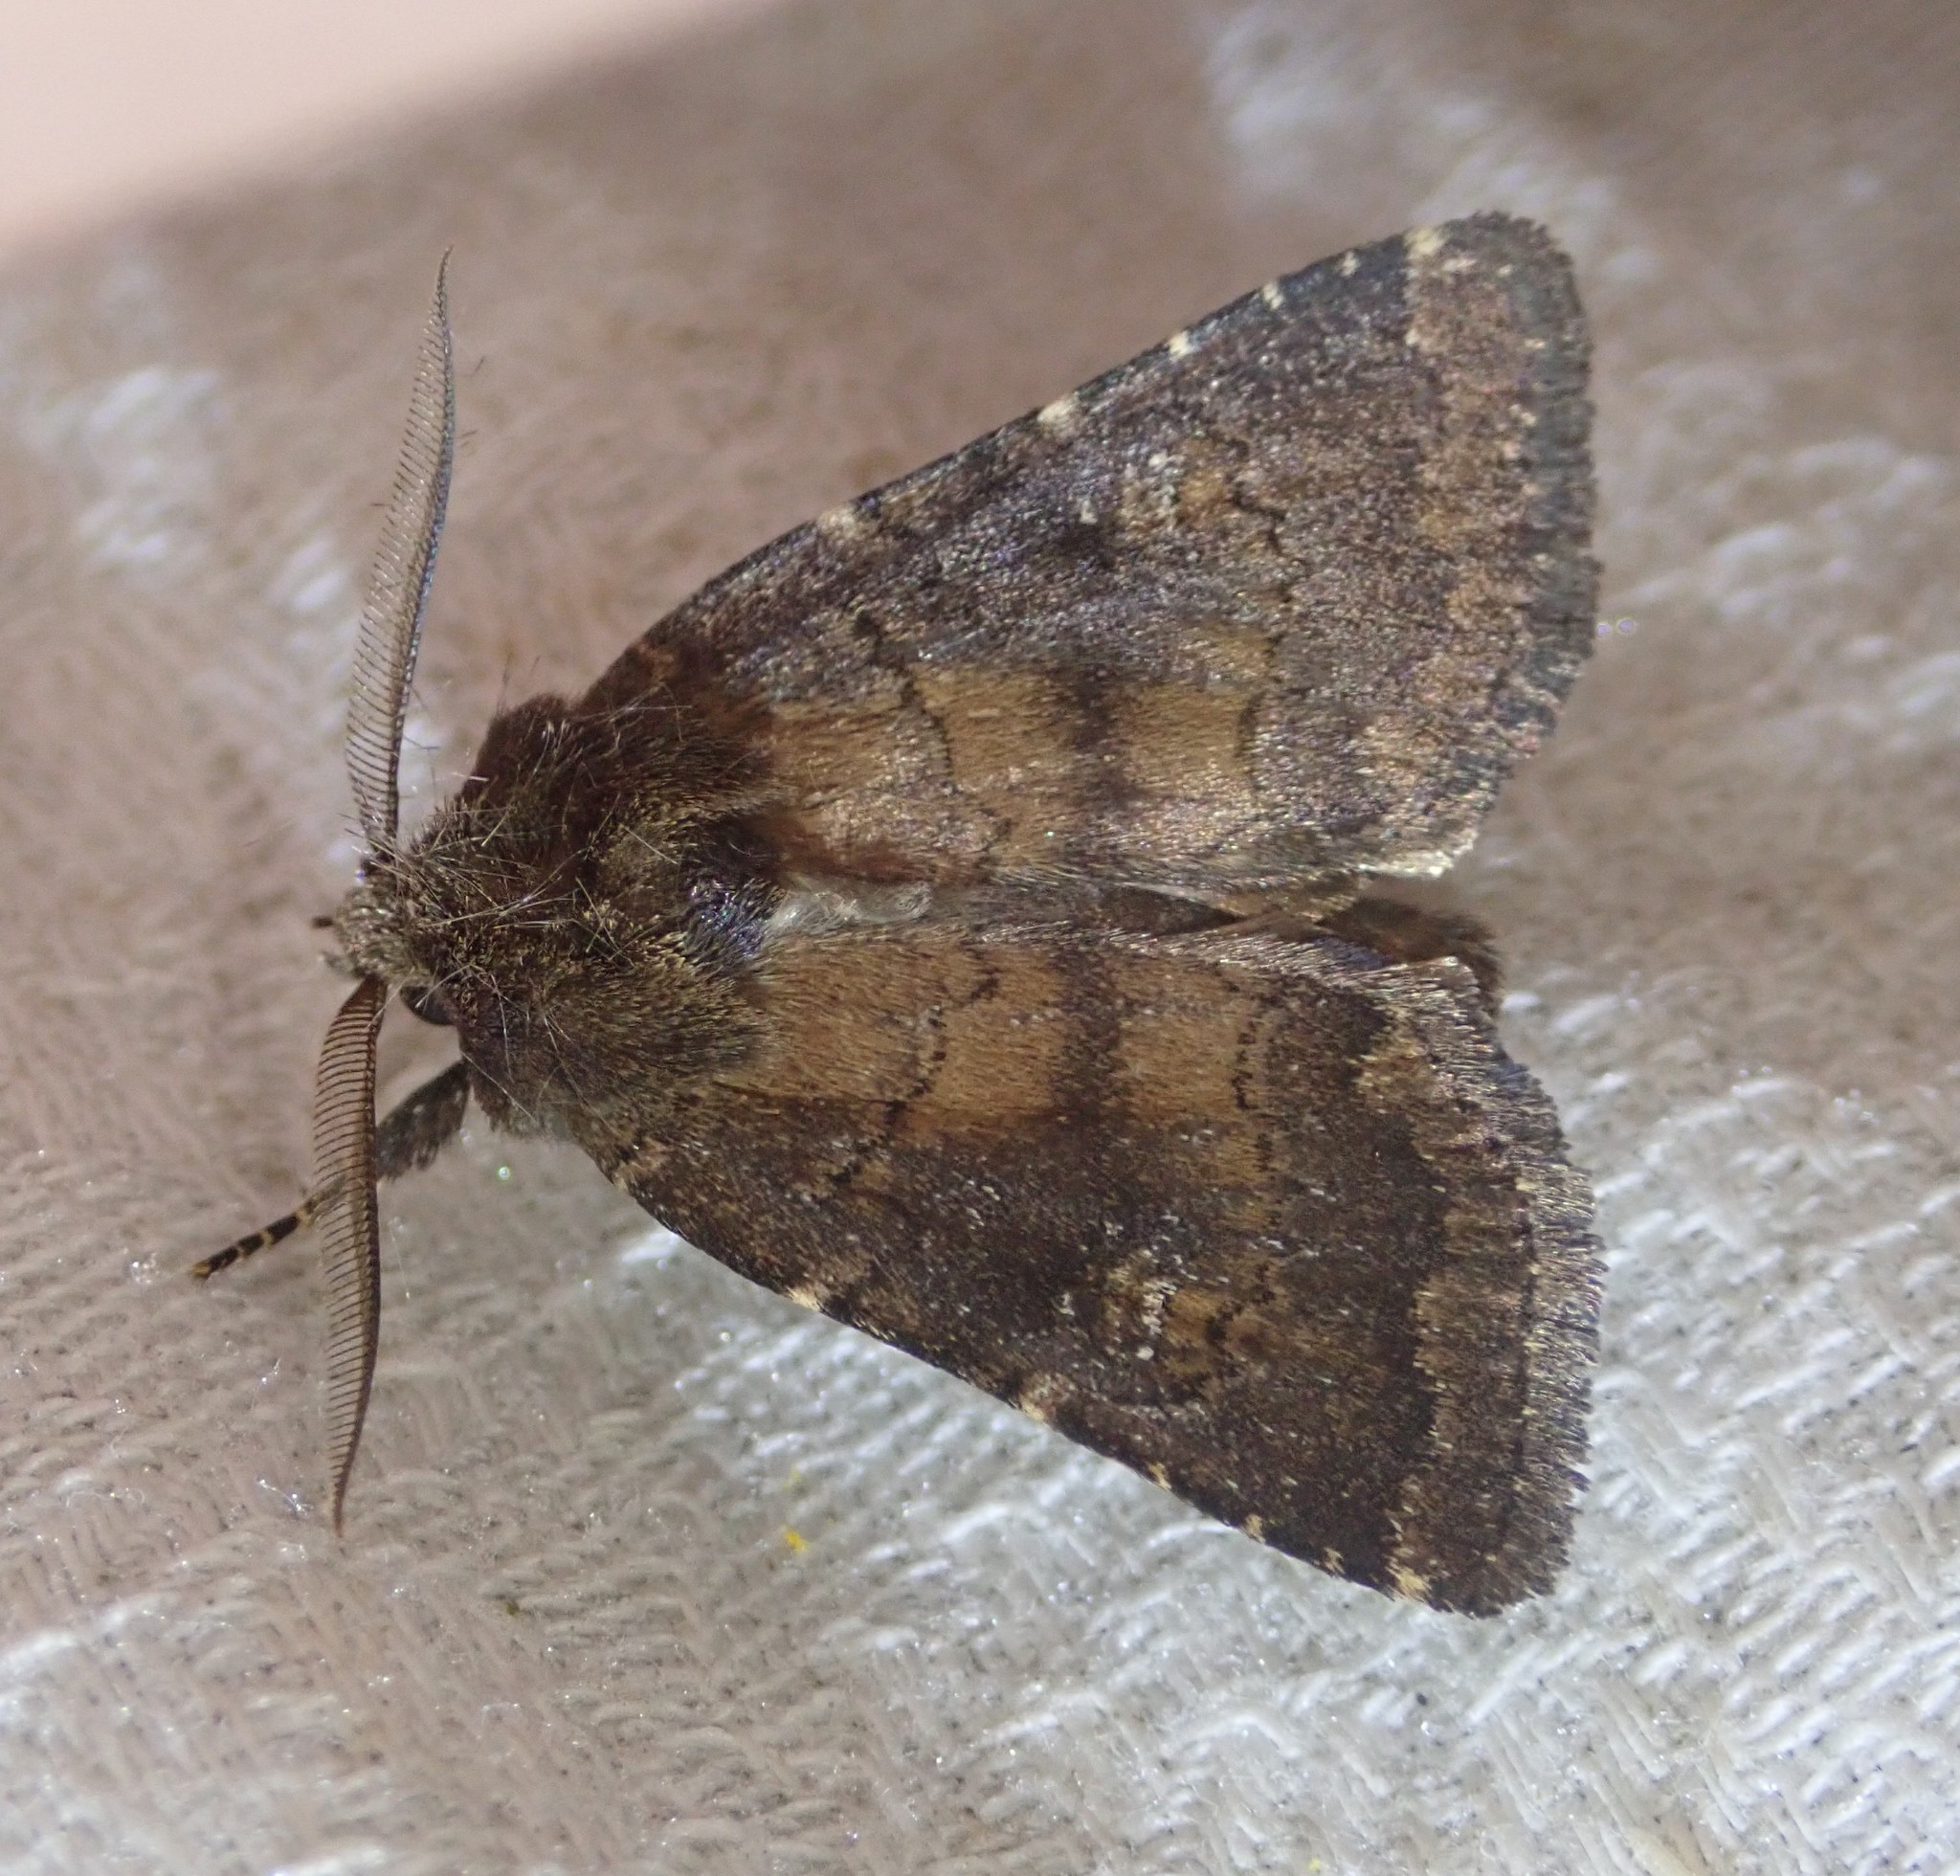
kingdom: Animalia
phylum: Arthropoda
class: Insecta
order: Lepidoptera
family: Noctuidae
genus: Charanyca
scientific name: Charanyca ferruginea
